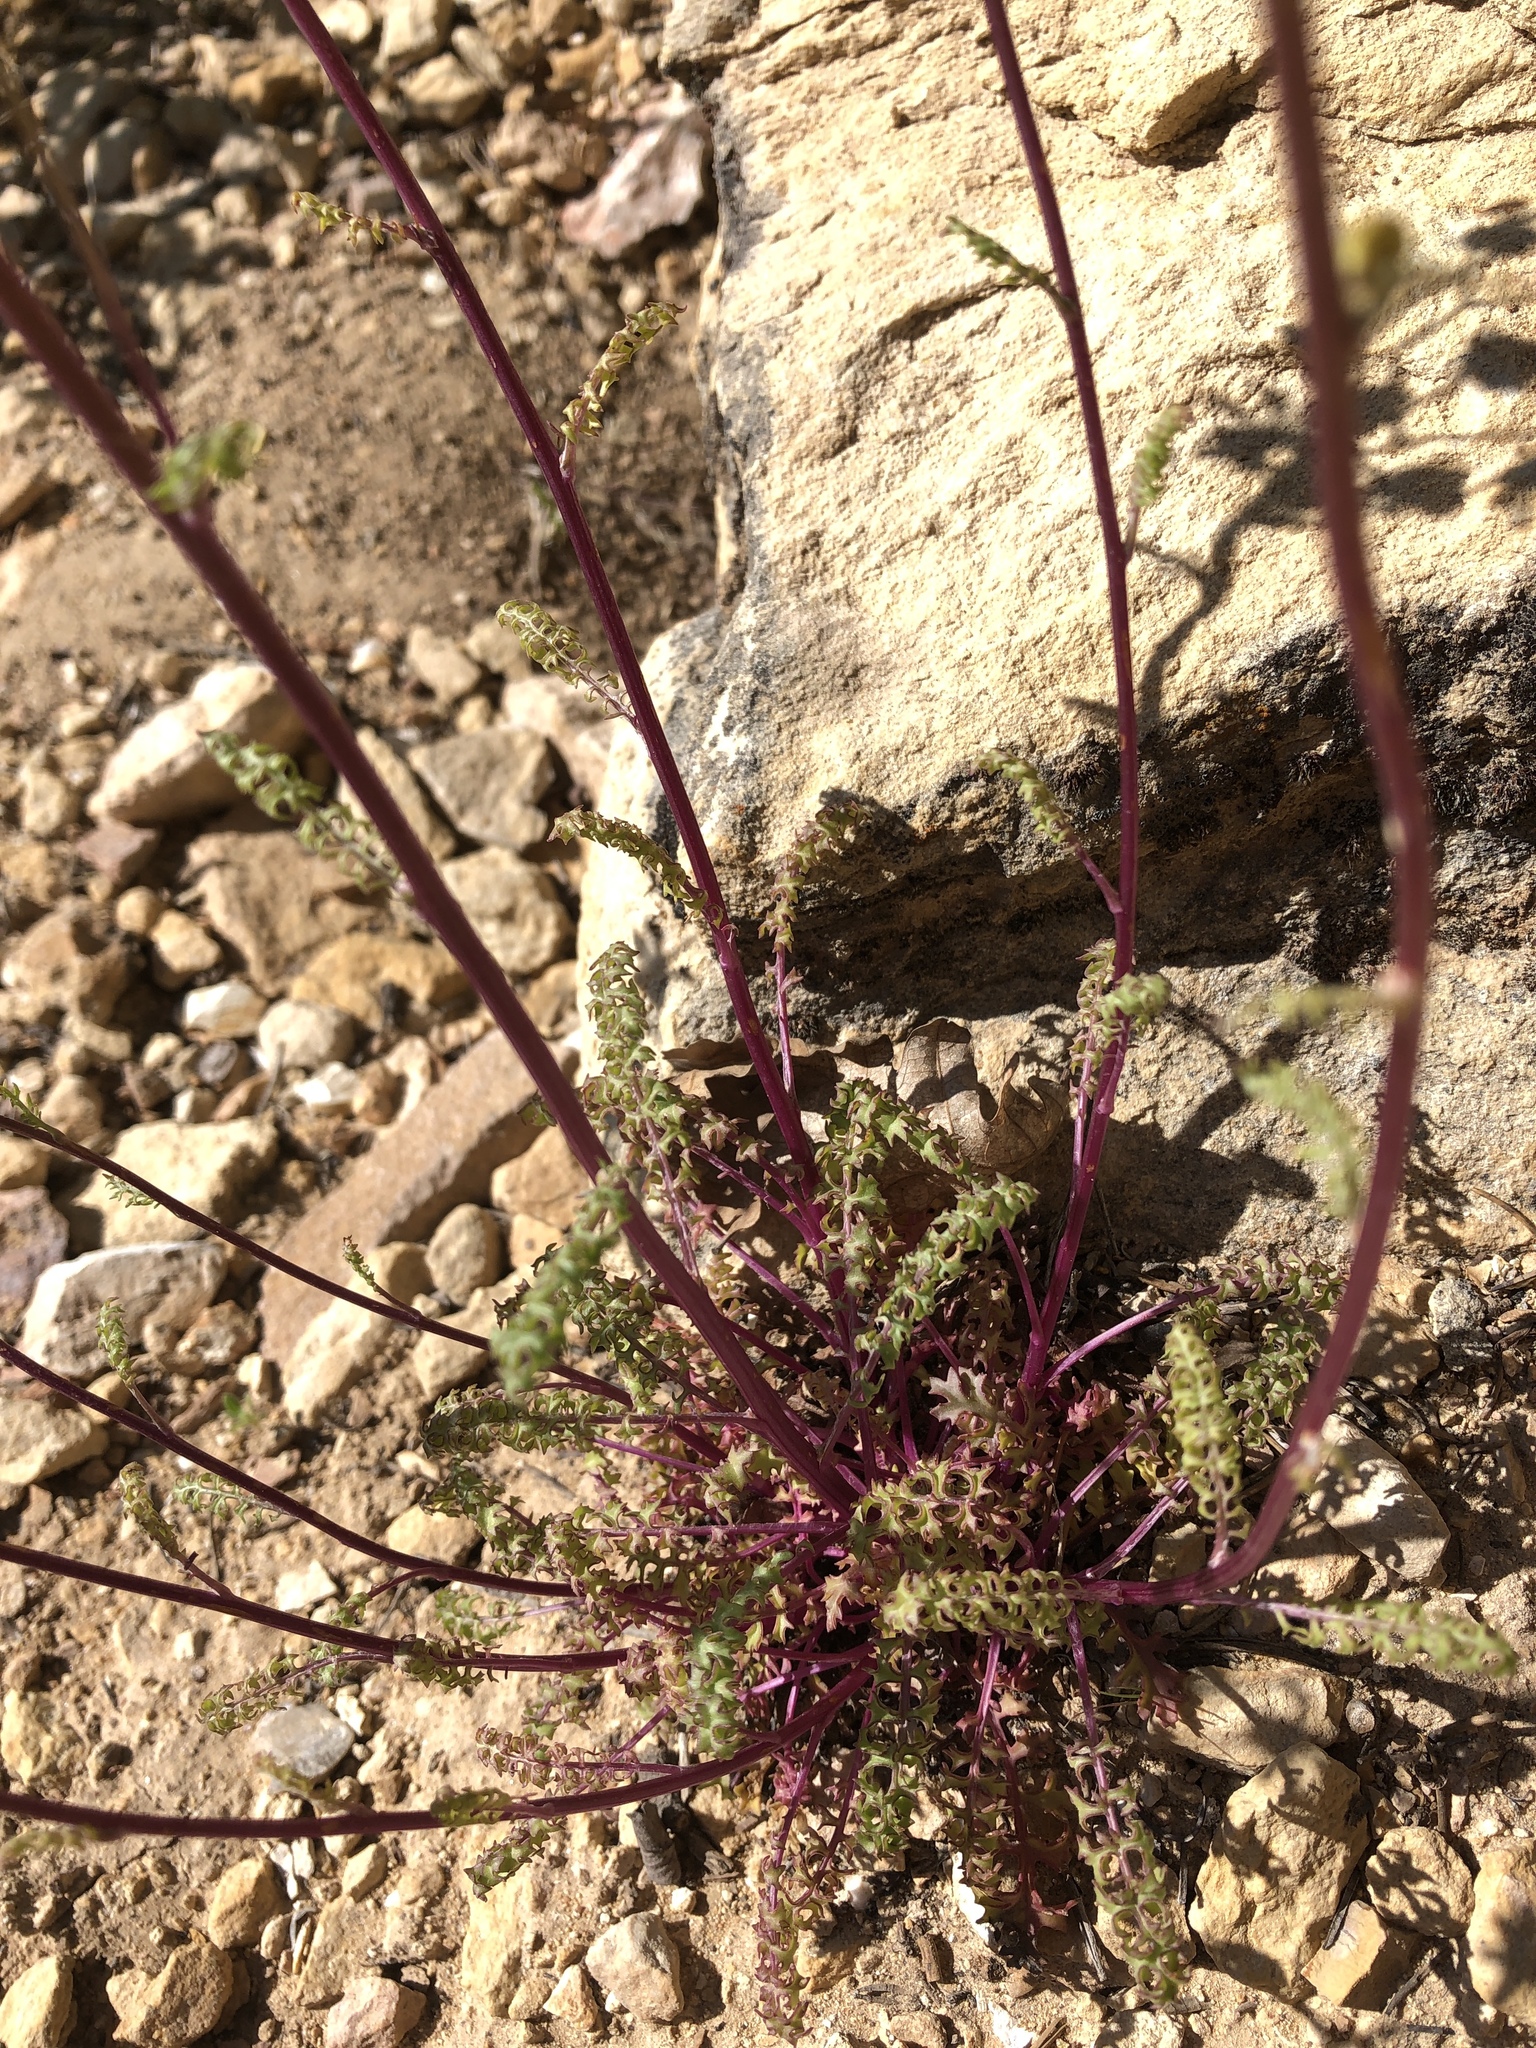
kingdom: Plantae
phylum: Tracheophyta
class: Magnoliopsida
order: Asterales
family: Asteraceae
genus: Packera
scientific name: Packera multilobata
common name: Lobe-leaf groundsel
